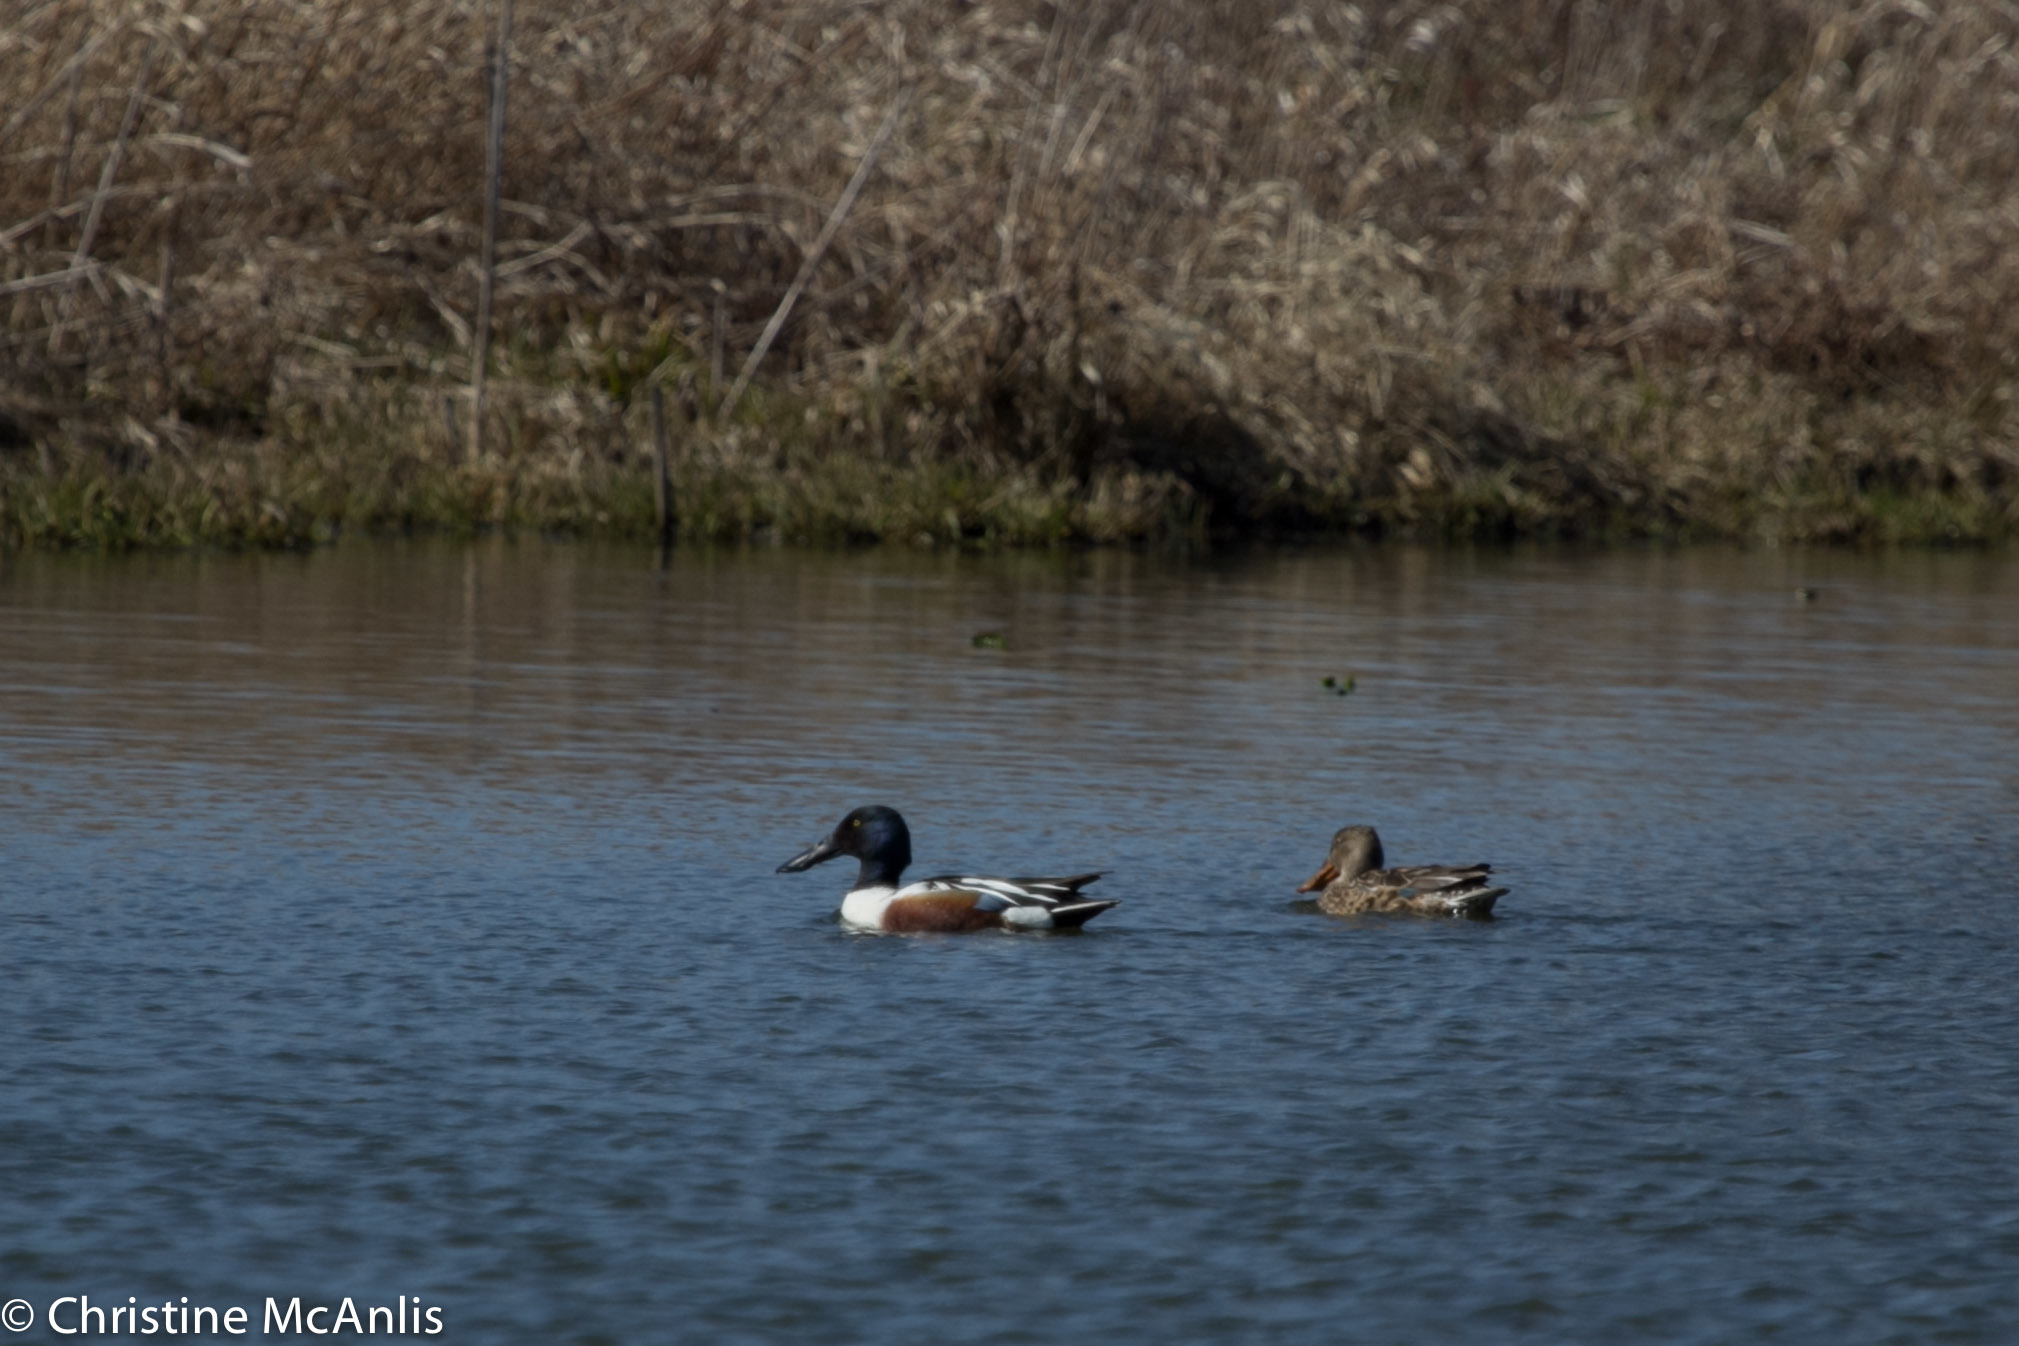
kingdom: Animalia
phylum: Chordata
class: Aves
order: Anseriformes
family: Anatidae
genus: Spatula
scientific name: Spatula clypeata
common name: Northern shoveler
